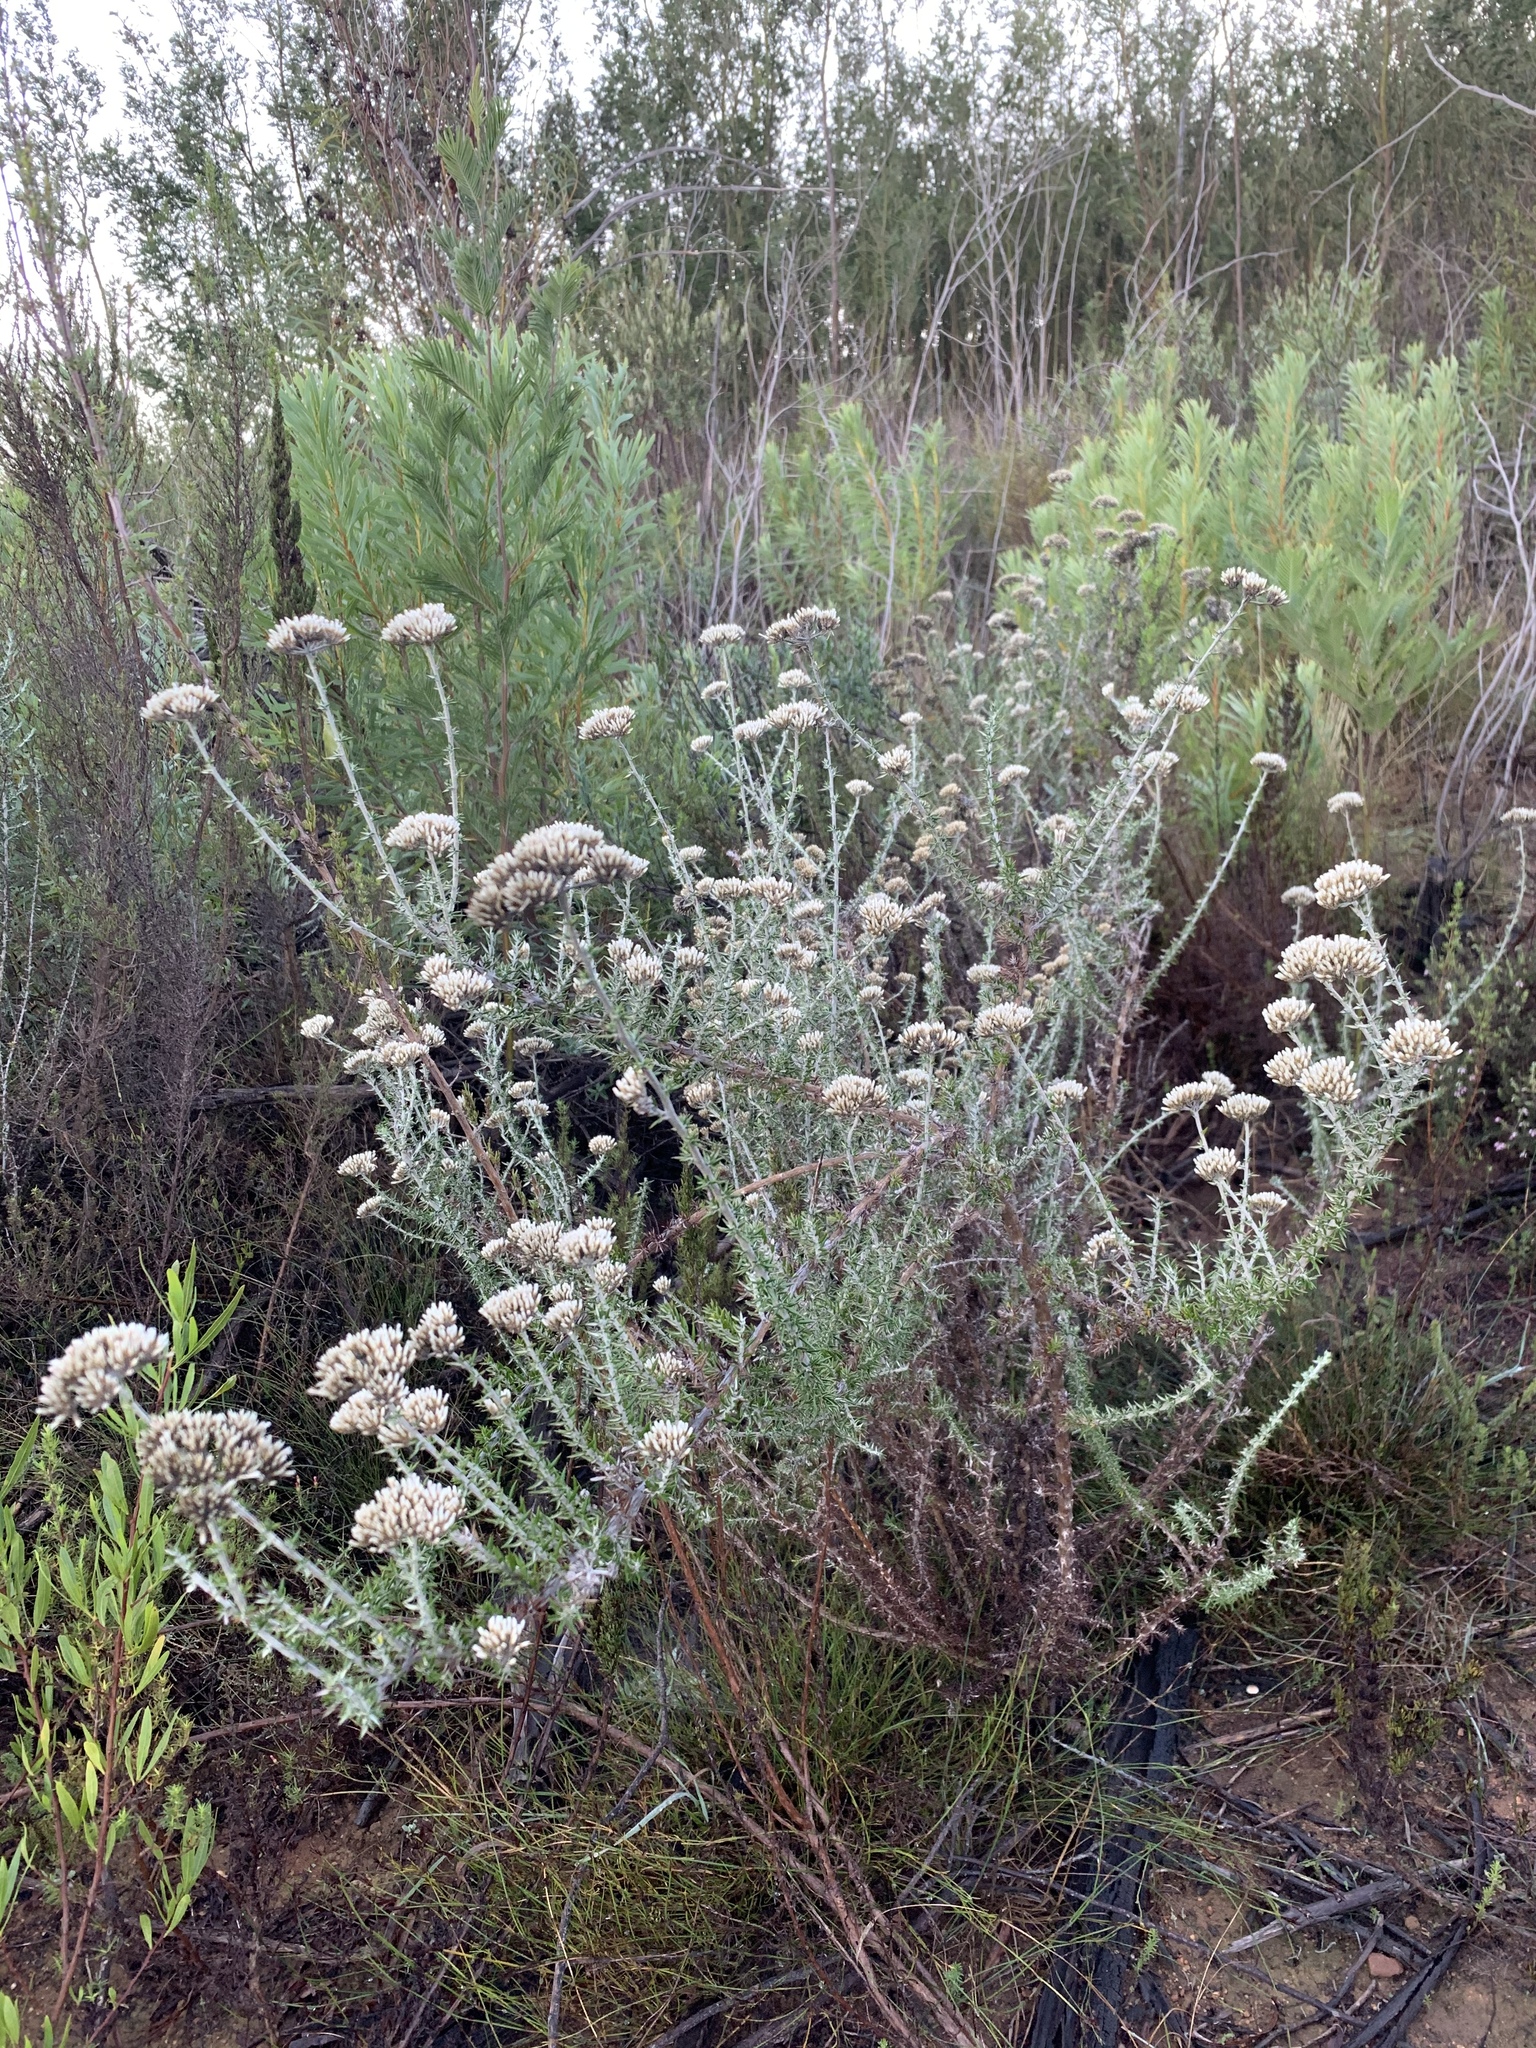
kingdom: Plantae
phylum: Tracheophyta
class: Magnoliopsida
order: Asterales
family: Asteraceae
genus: Metalasia
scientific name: Metalasia densa
